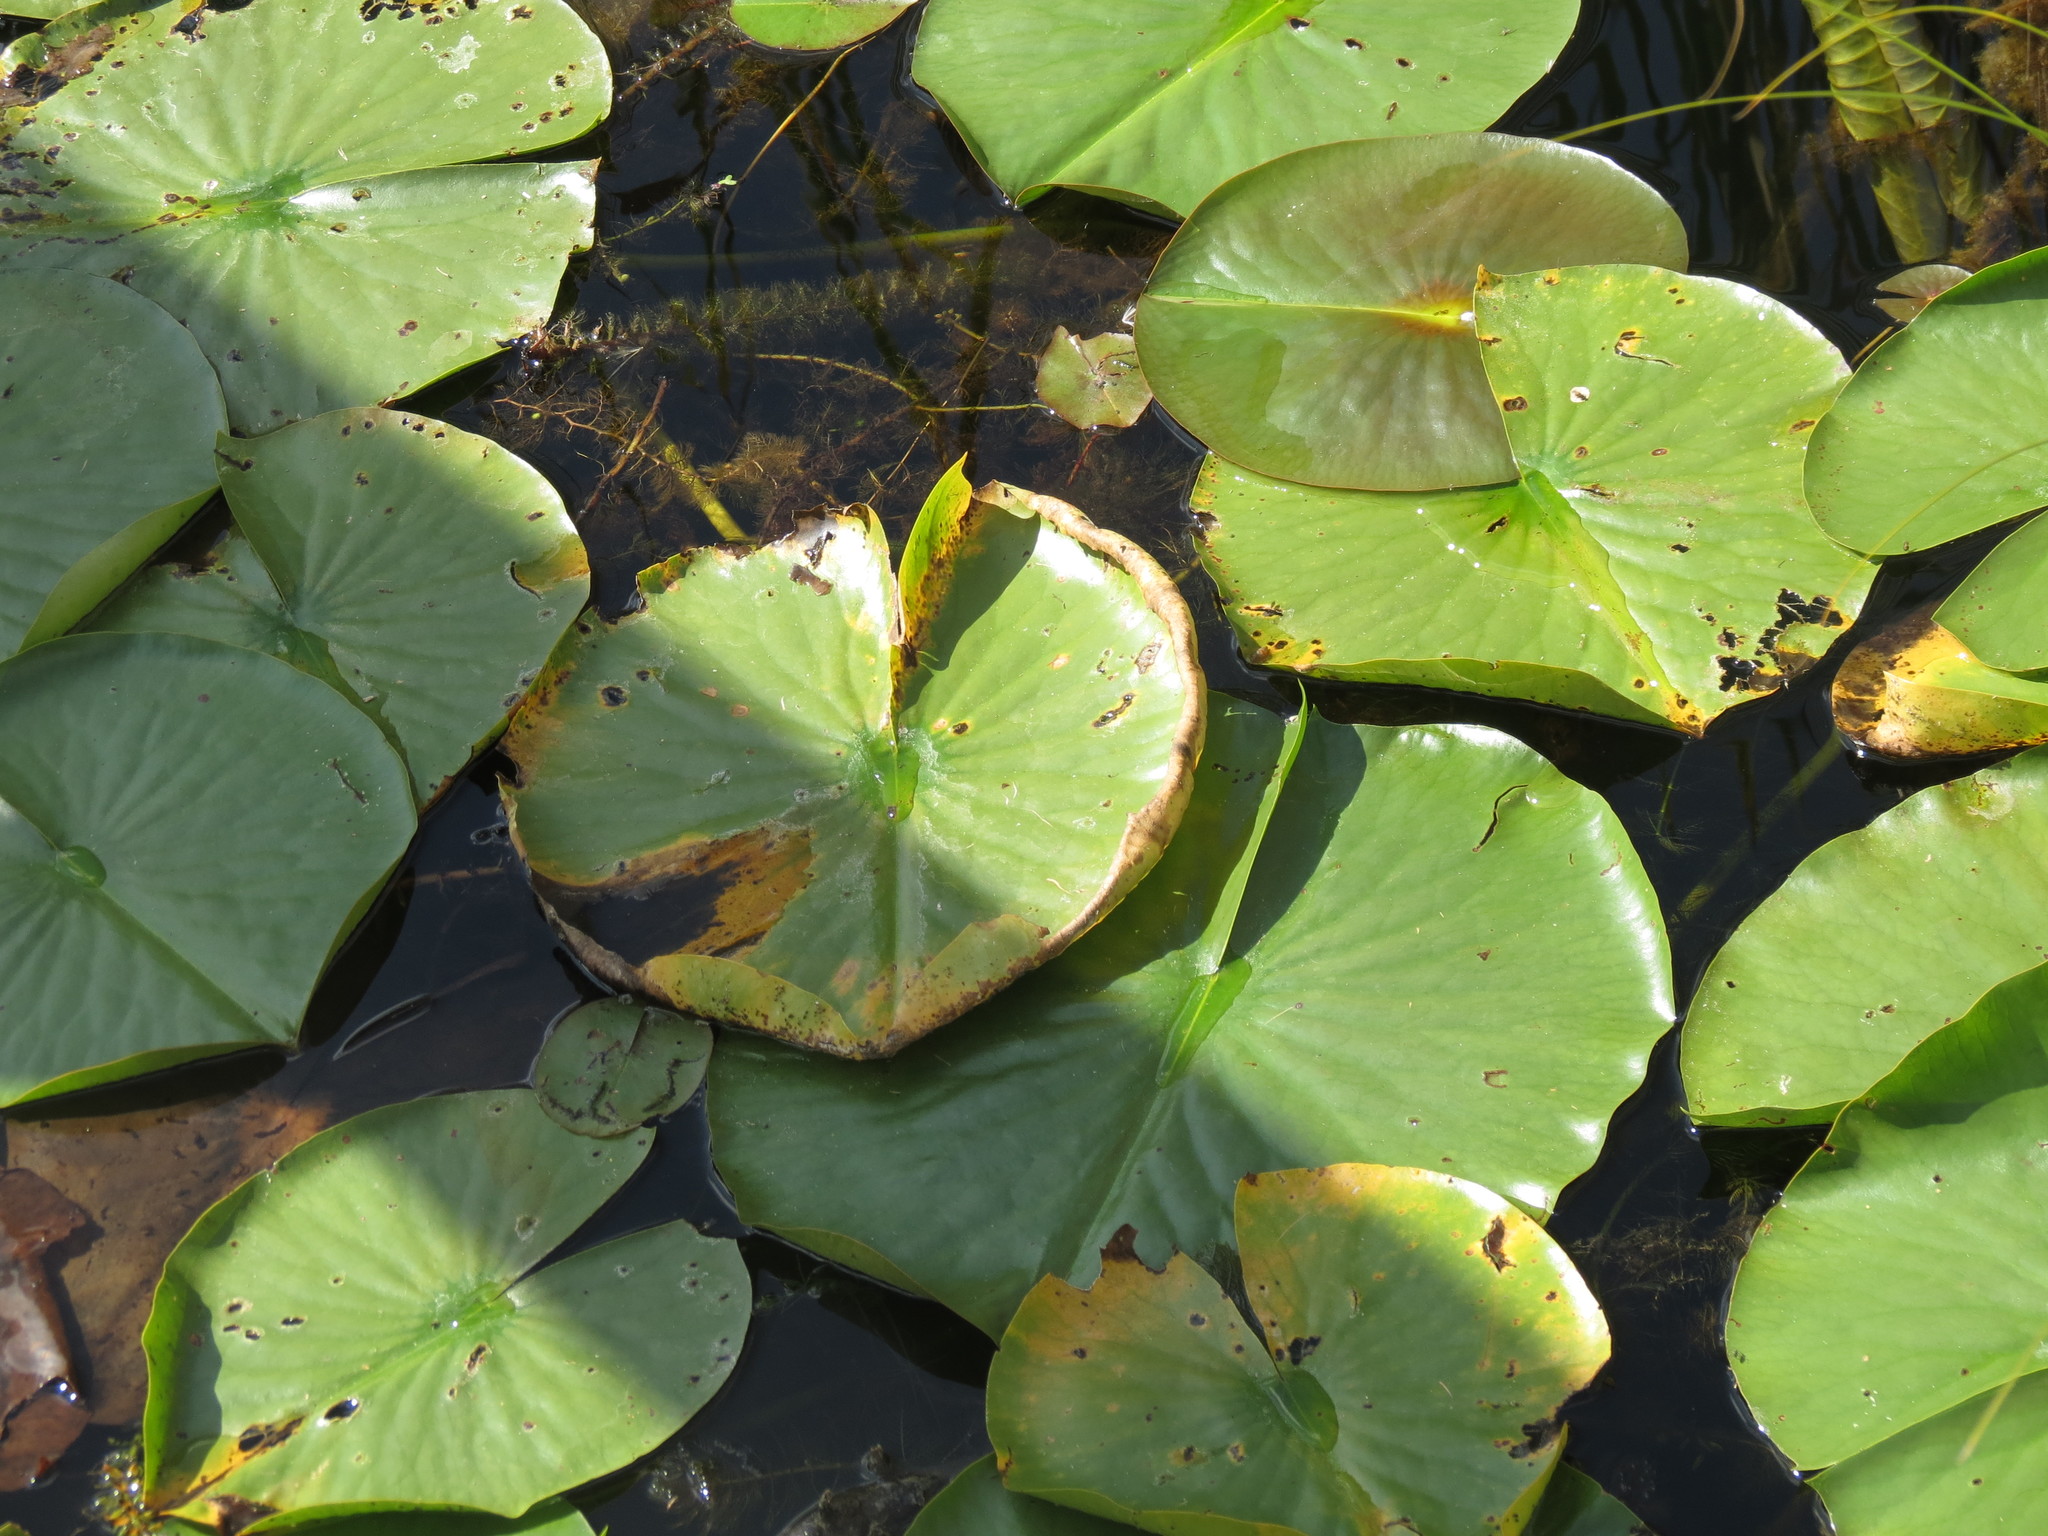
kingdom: Plantae
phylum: Tracheophyta
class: Magnoliopsida
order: Nymphaeales
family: Nymphaeaceae
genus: Nymphaea
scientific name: Nymphaea odorata
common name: Fragrant water-lily
